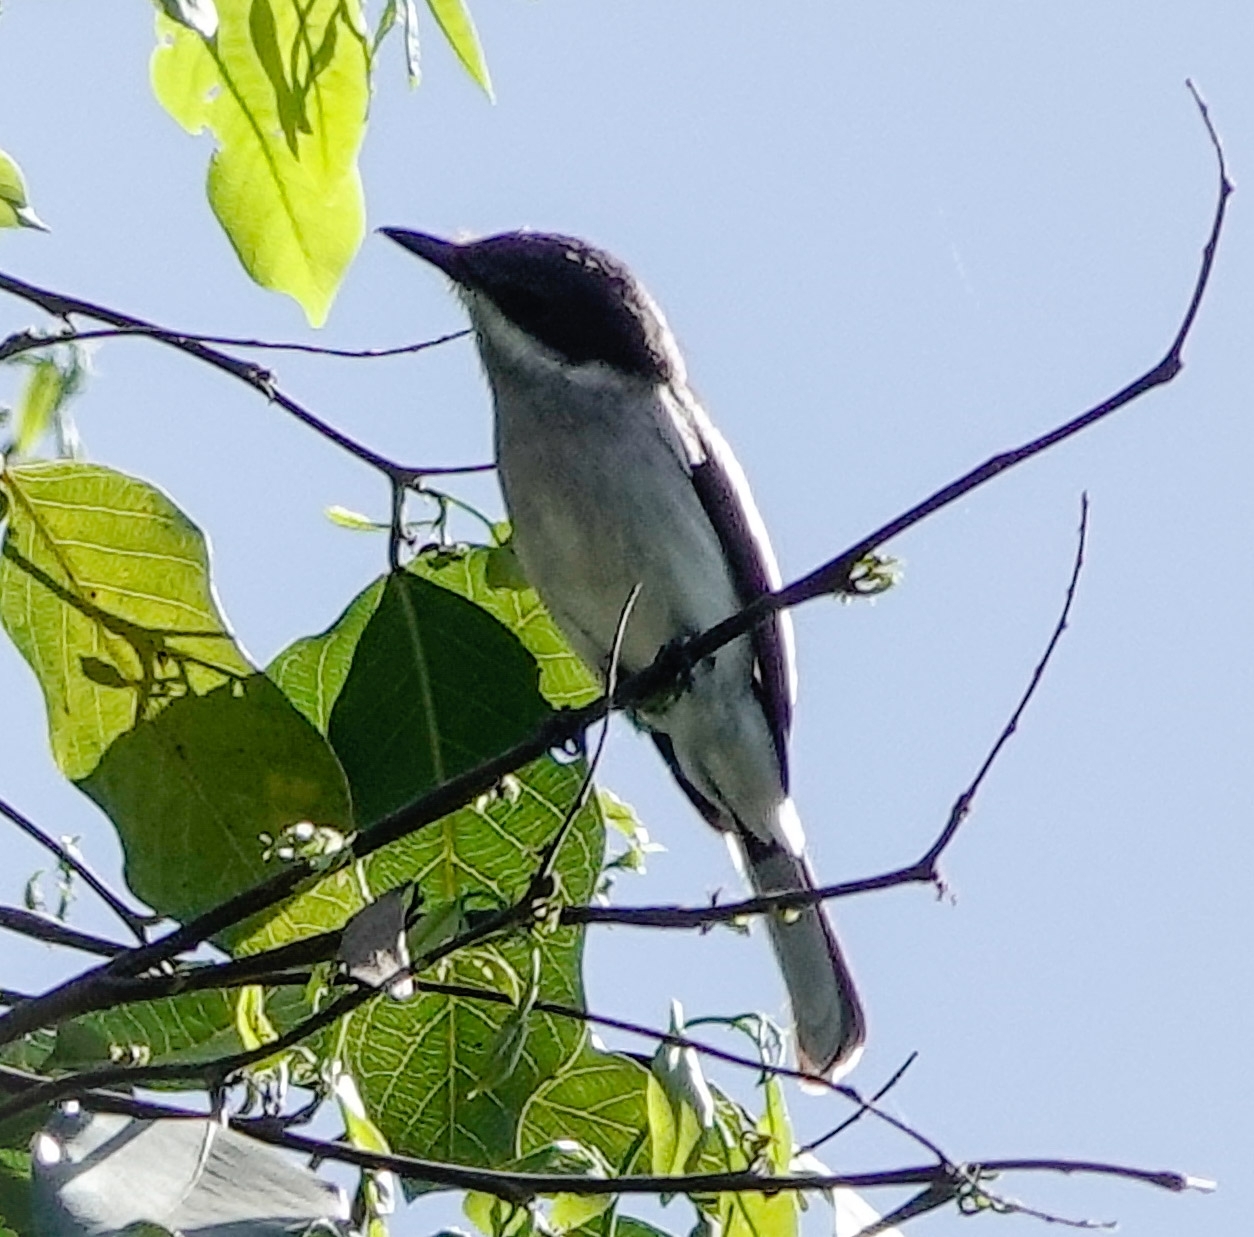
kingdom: Animalia
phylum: Chordata
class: Aves
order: Passeriformes
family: Tephrodornithidae
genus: Hemipus
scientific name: Hemipus picatus
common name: Bar-winged flycatcher-shrike
